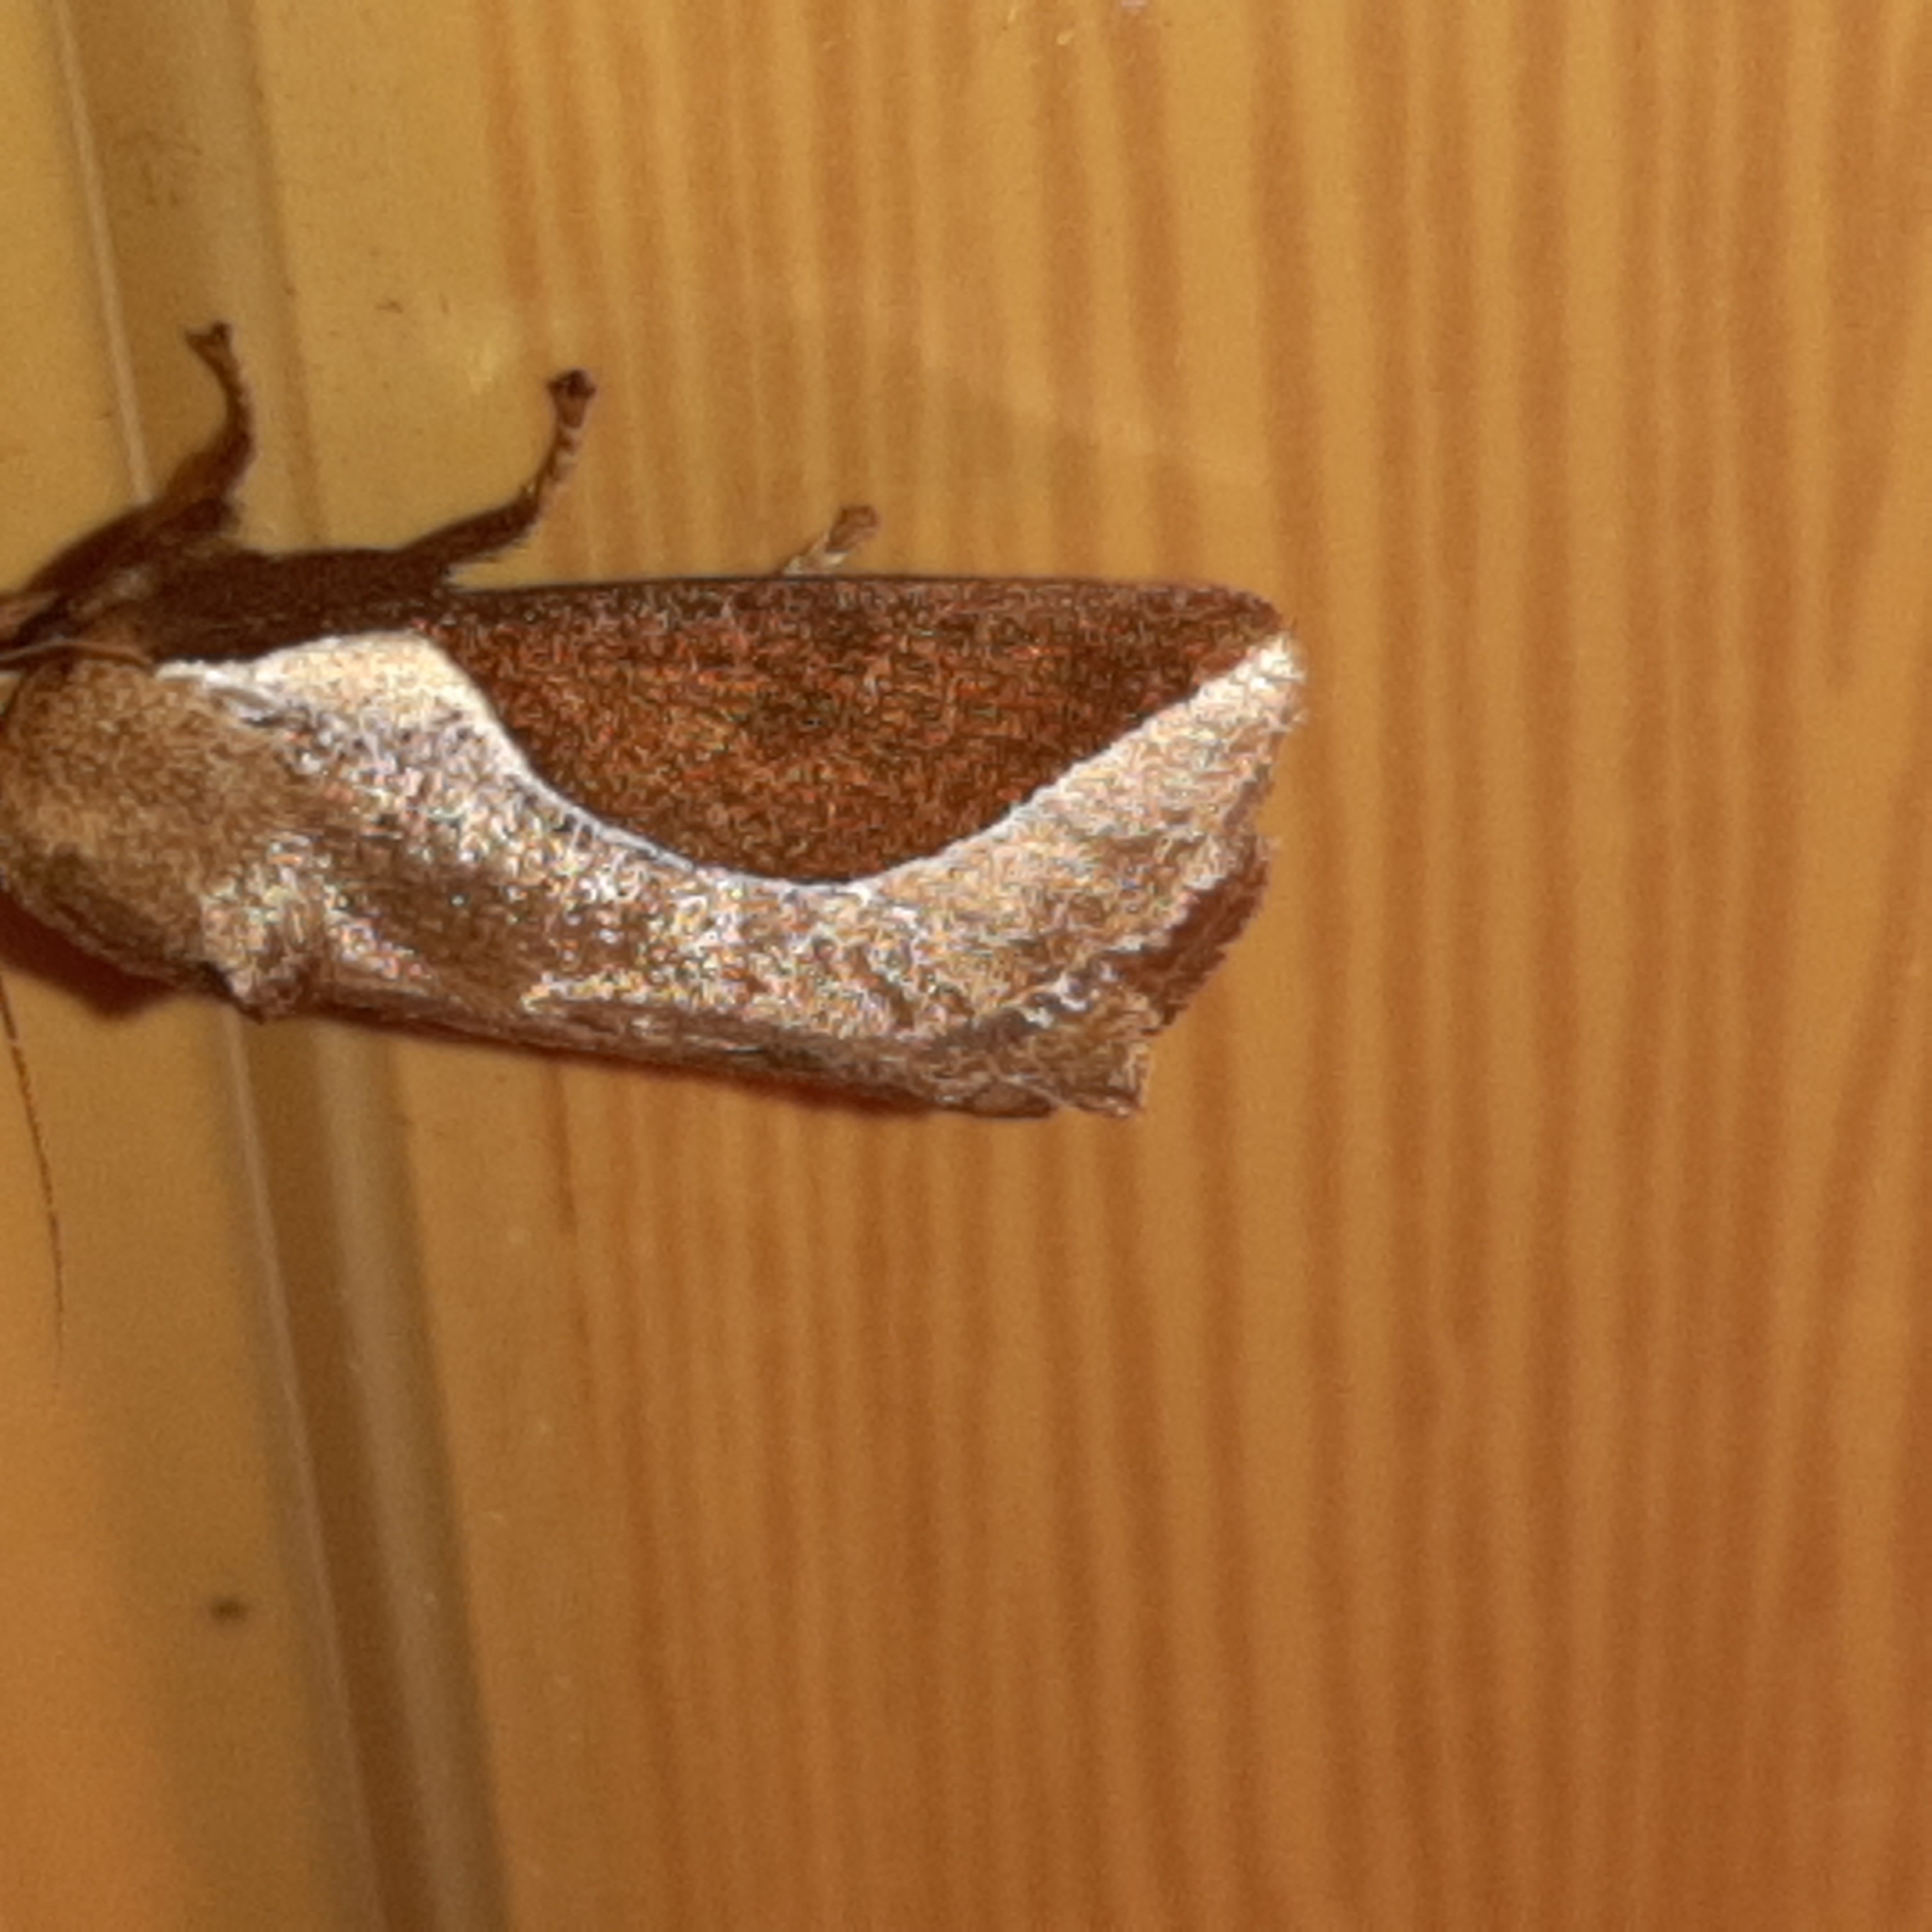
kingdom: Animalia
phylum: Arthropoda
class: Insecta
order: Lepidoptera
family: Limacodidae
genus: Prolimacodes
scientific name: Prolimacodes badia
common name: Skiff moth
